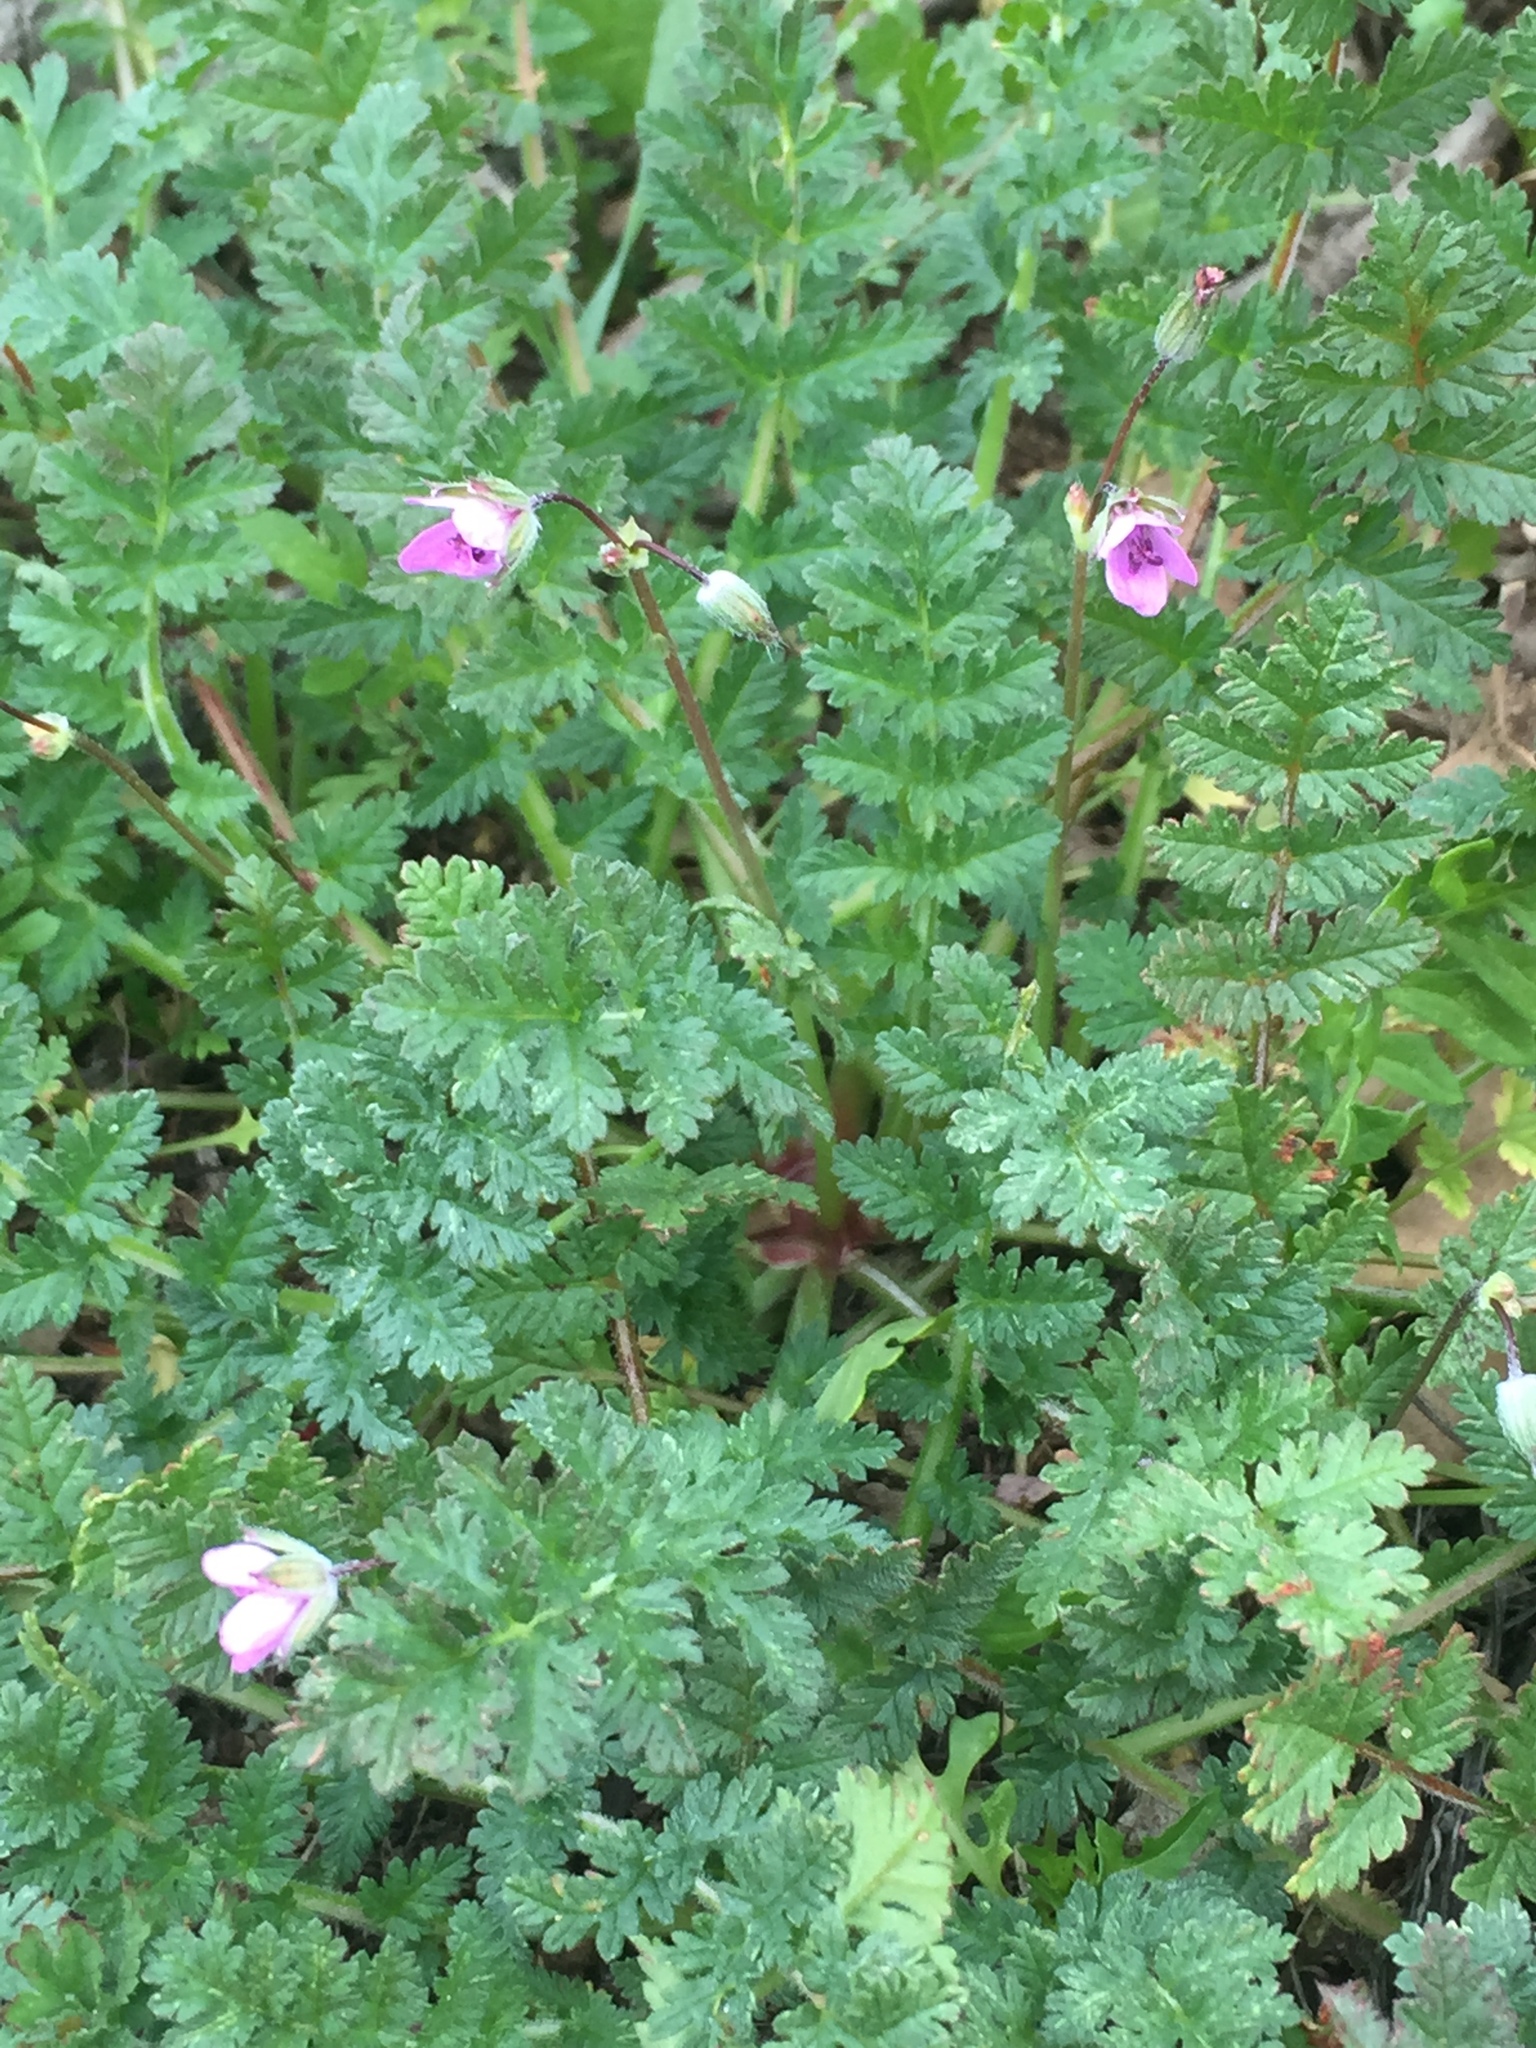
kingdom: Plantae
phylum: Tracheophyta
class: Magnoliopsida
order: Geraniales
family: Geraniaceae
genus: Erodium
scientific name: Erodium cicutarium
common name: Common stork's-bill
